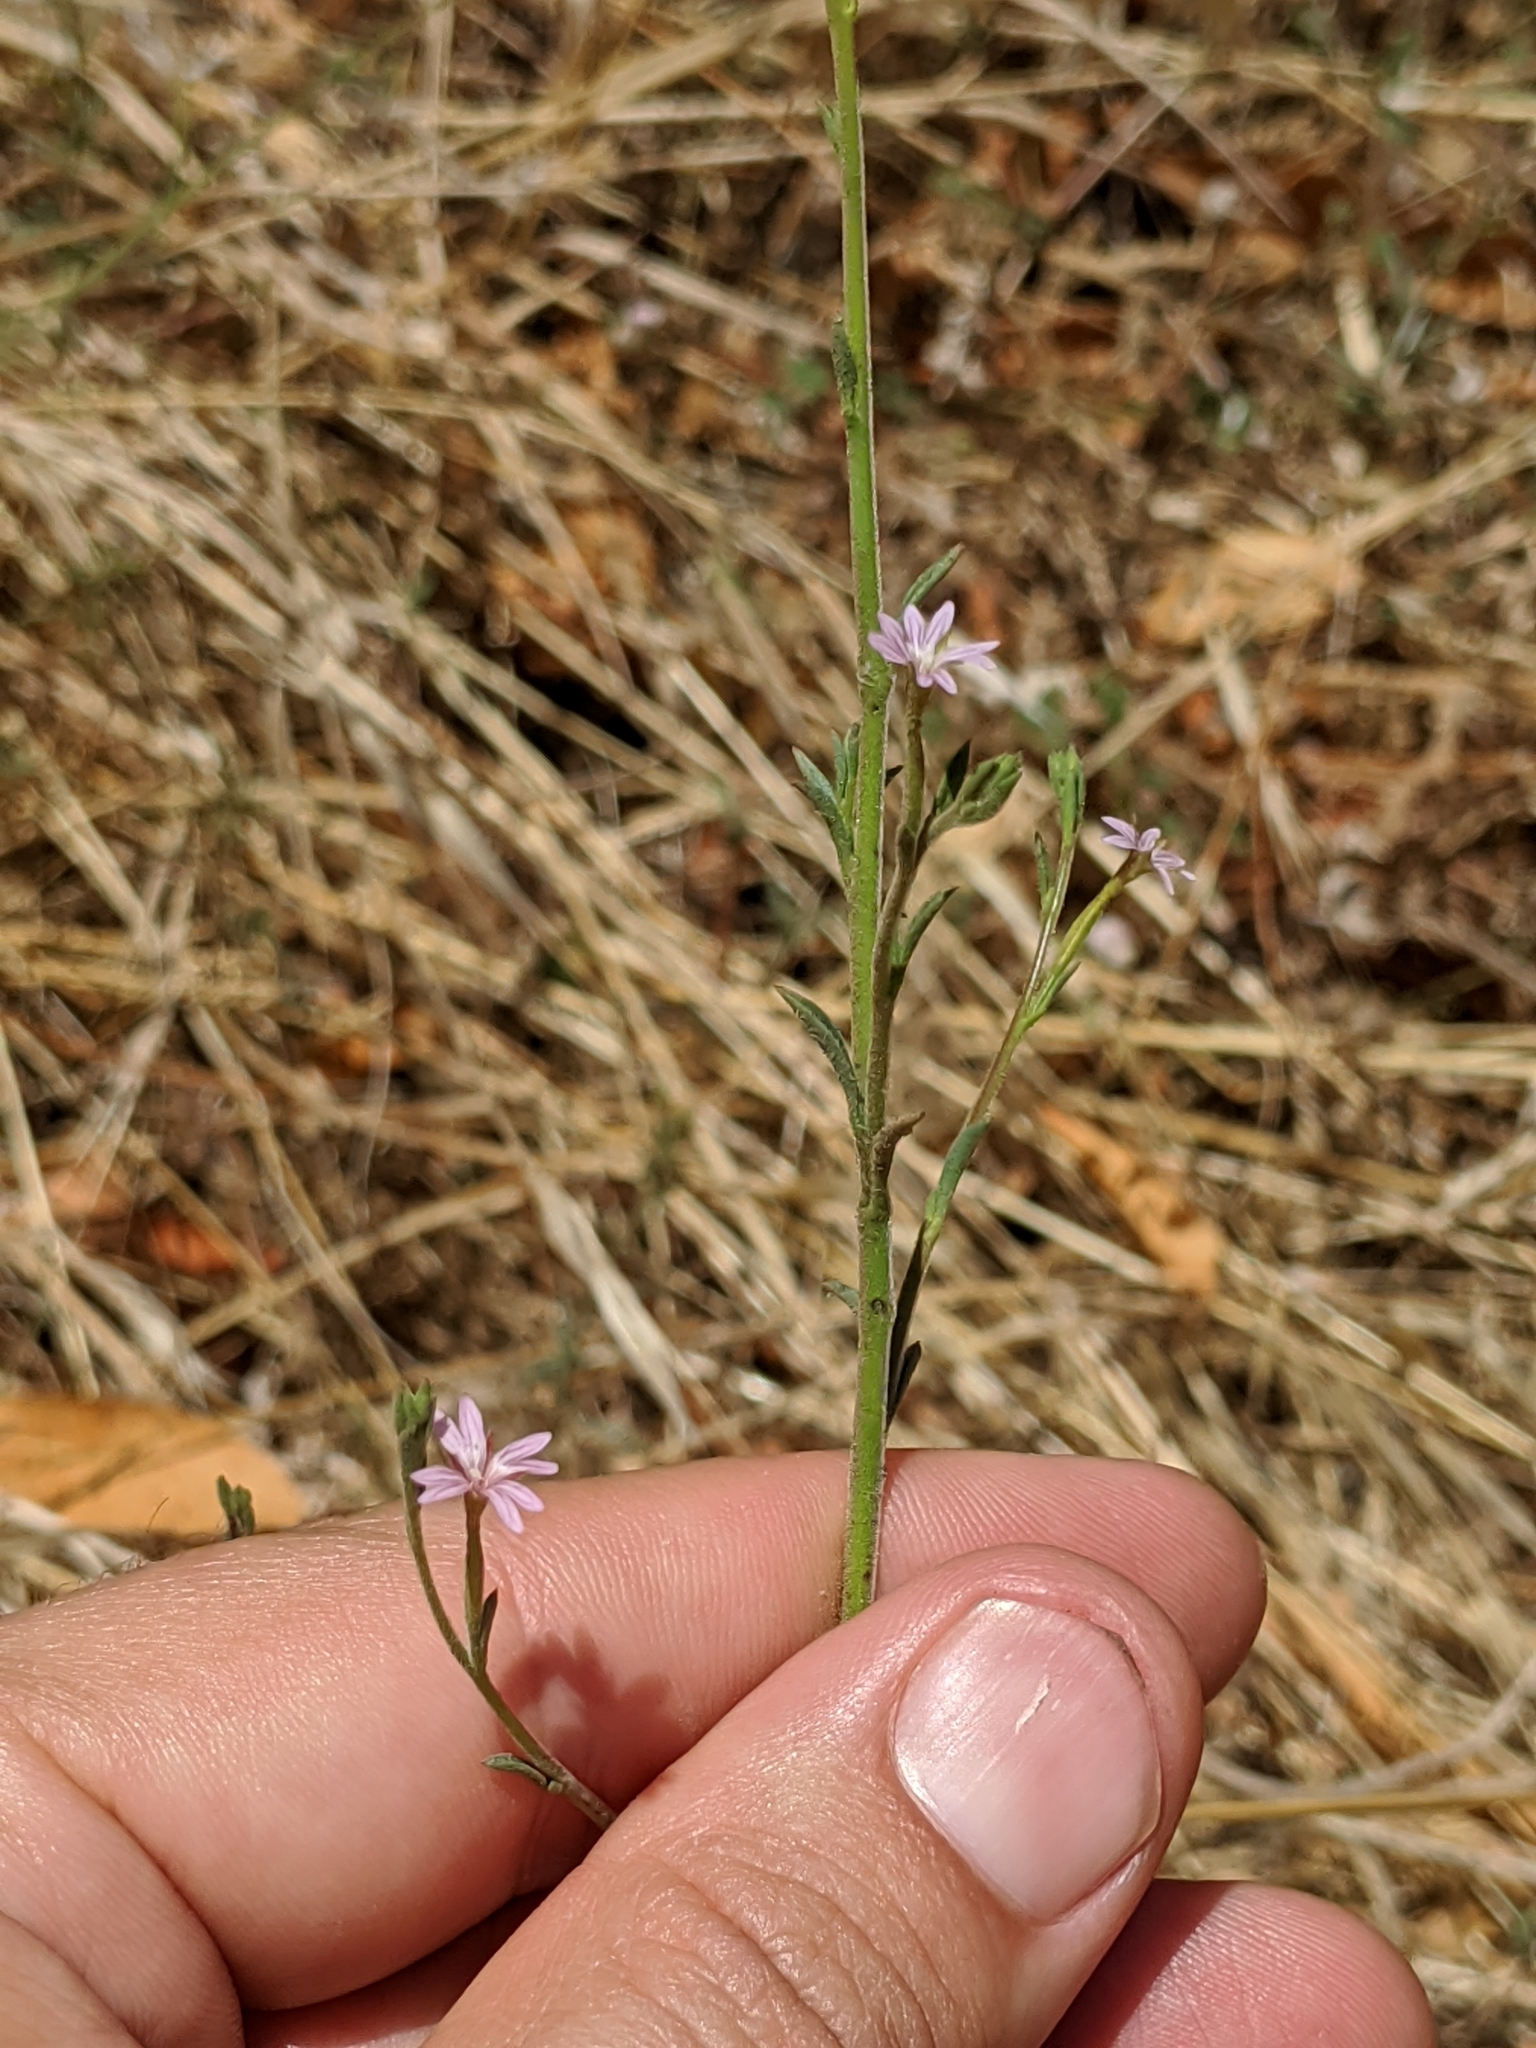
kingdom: Plantae
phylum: Tracheophyta
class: Magnoliopsida
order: Myrtales
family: Onagraceae
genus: Epilobium
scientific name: Epilobium brachycarpum
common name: Annual willowherb
